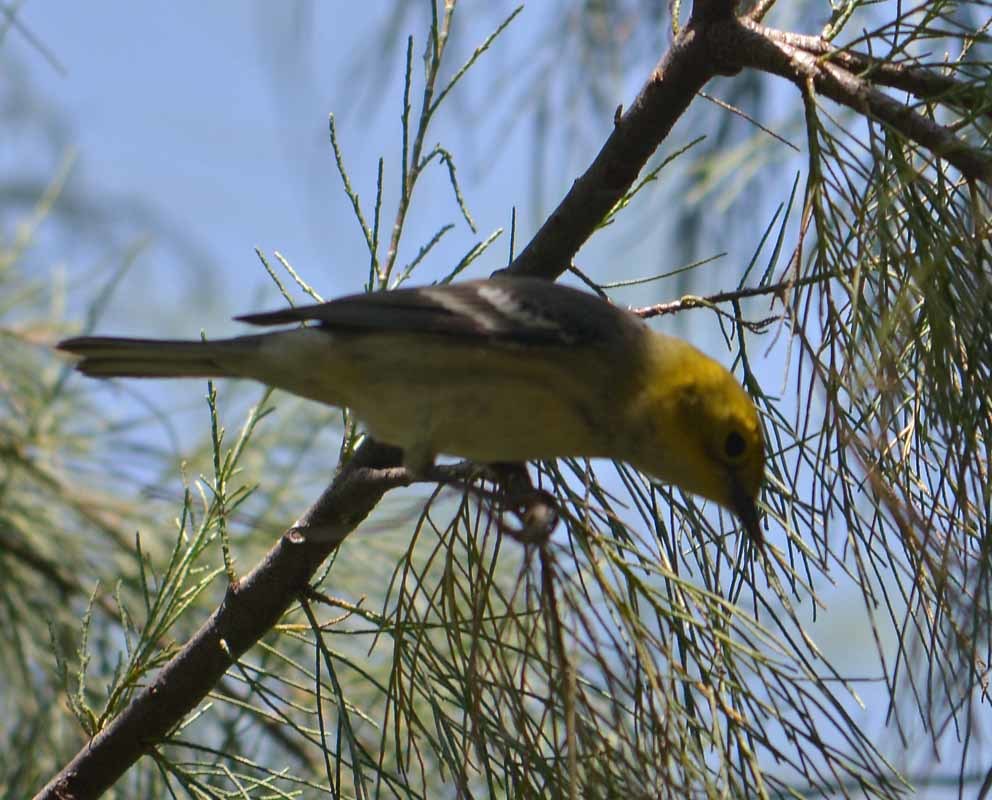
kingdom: Animalia
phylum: Chordata
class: Aves
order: Passeriformes
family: Parulidae
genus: Setophaga
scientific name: Setophaga
